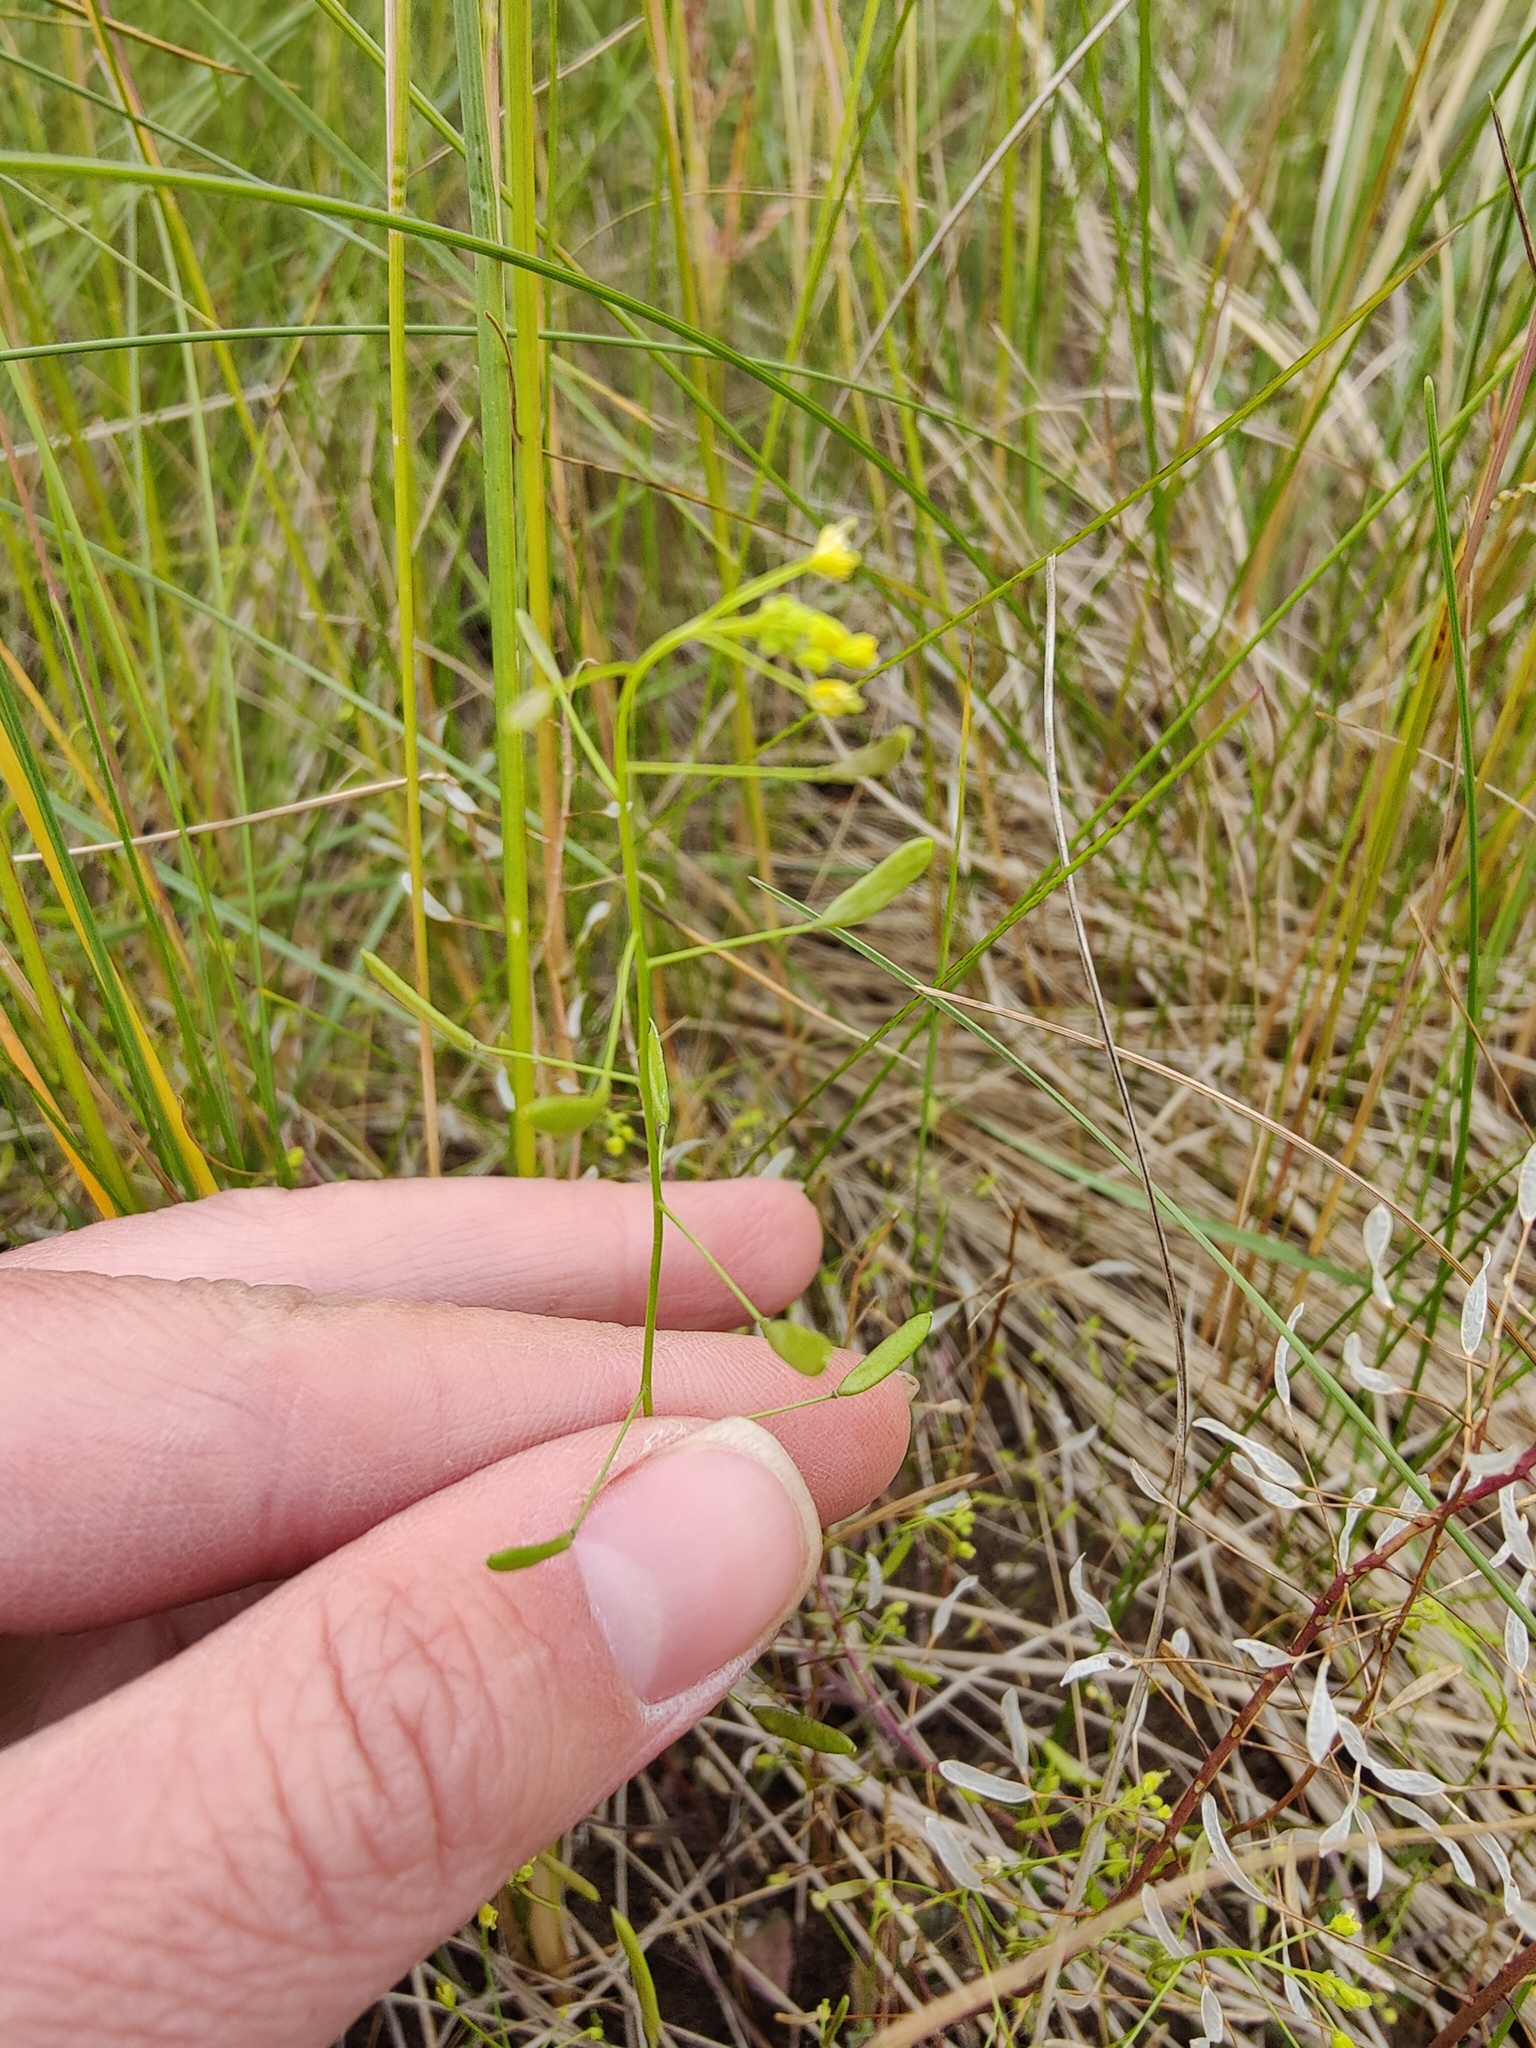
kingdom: Plantae
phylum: Tracheophyta
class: Magnoliopsida
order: Brassicales
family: Brassicaceae
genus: Draba
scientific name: Draba nemorosa
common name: Wood whitlow-grass
